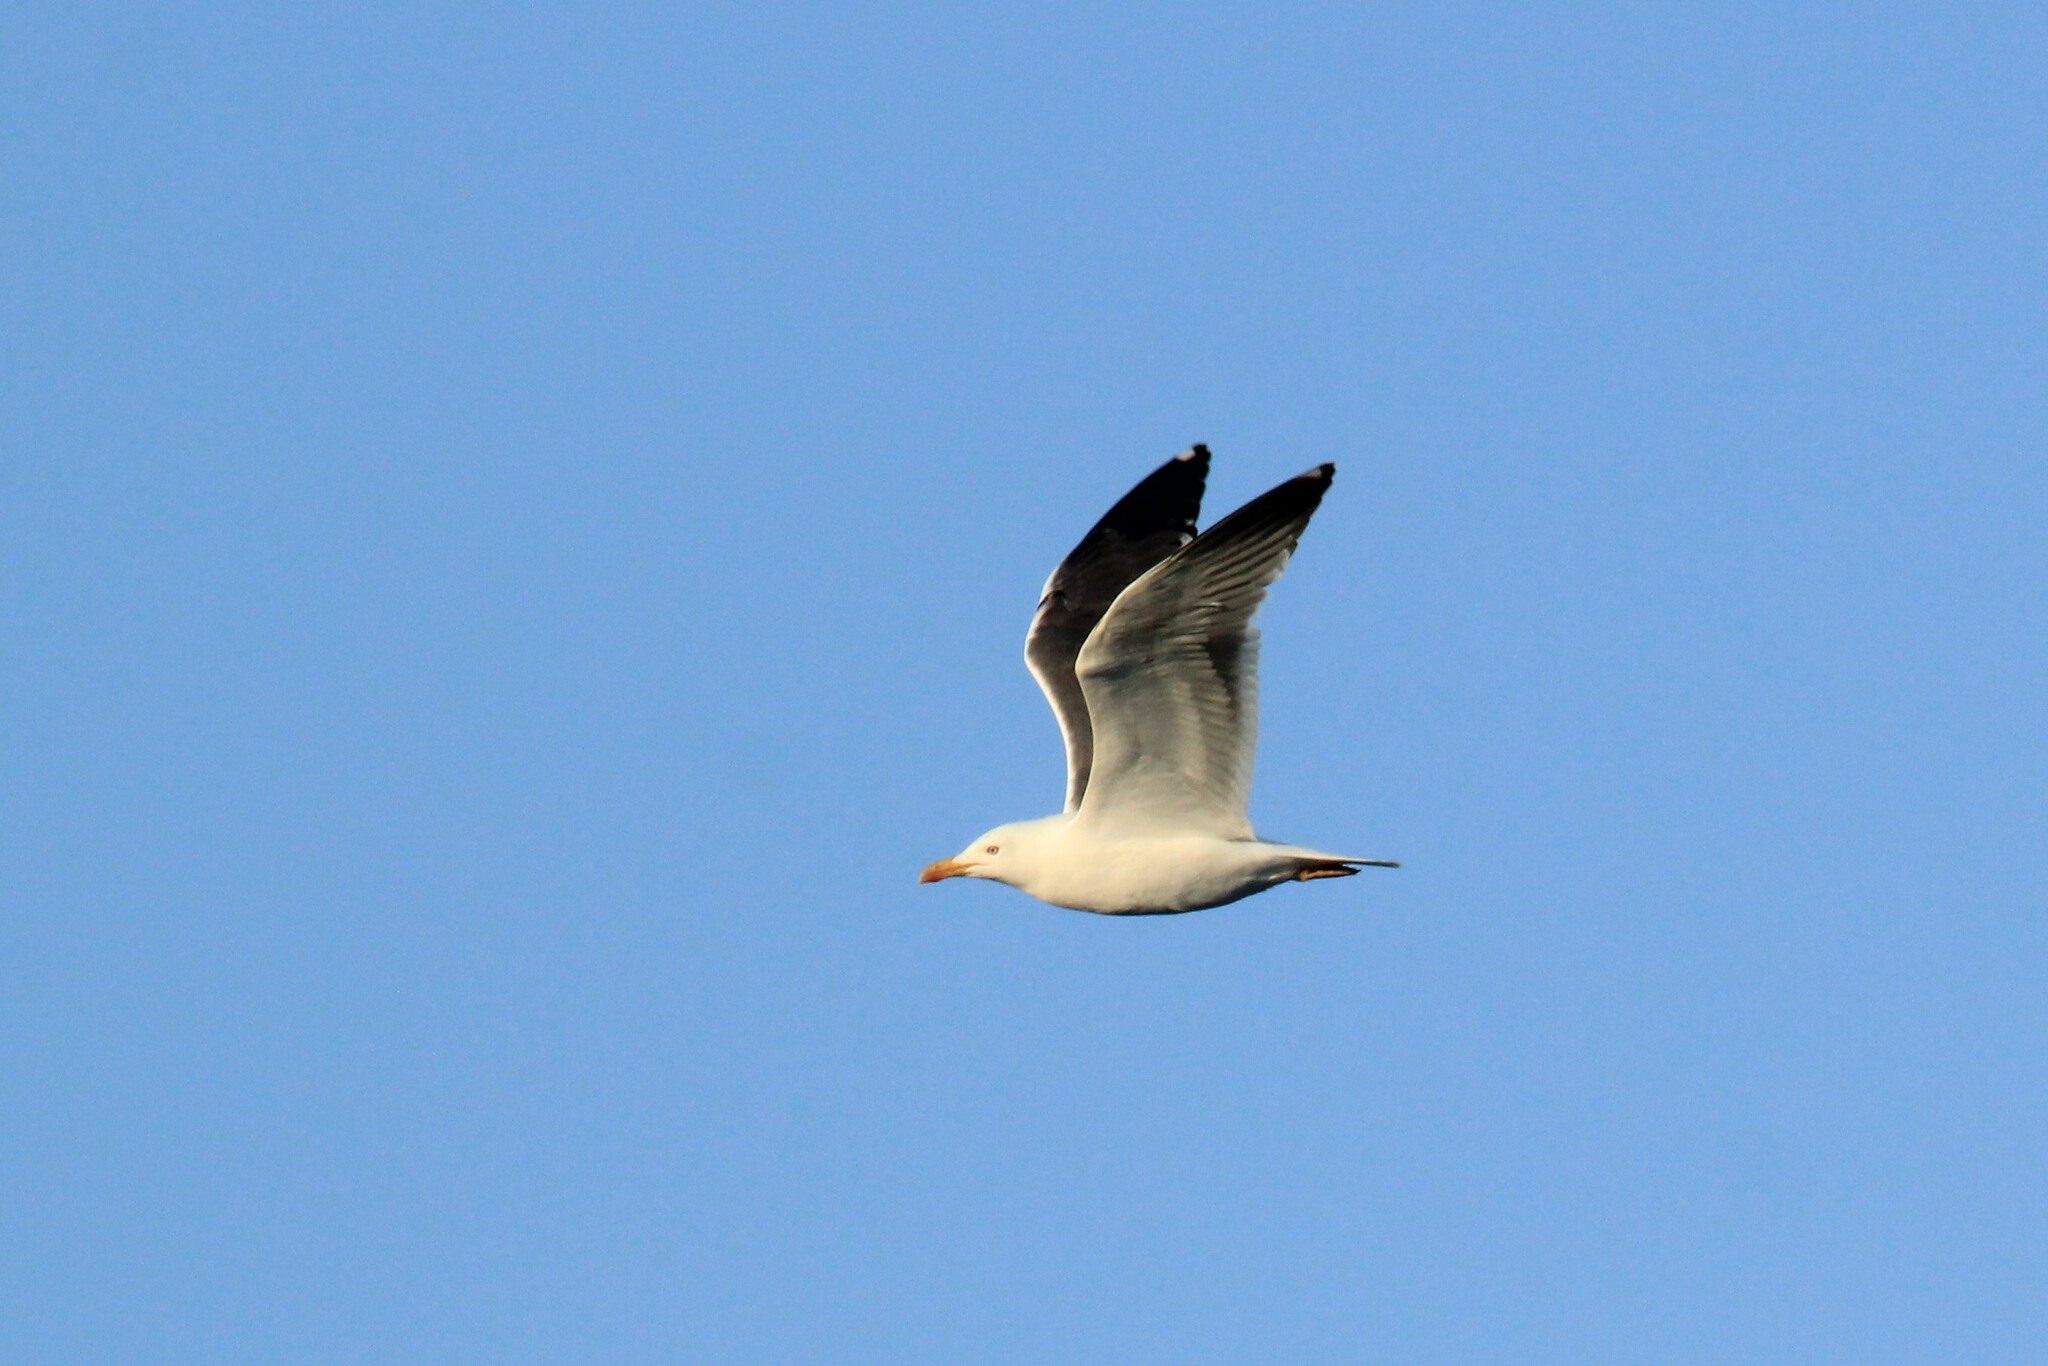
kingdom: Animalia
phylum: Chordata
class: Aves
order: Charadriiformes
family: Laridae
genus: Larus
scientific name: Larus fuscus
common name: Lesser black-backed gull
